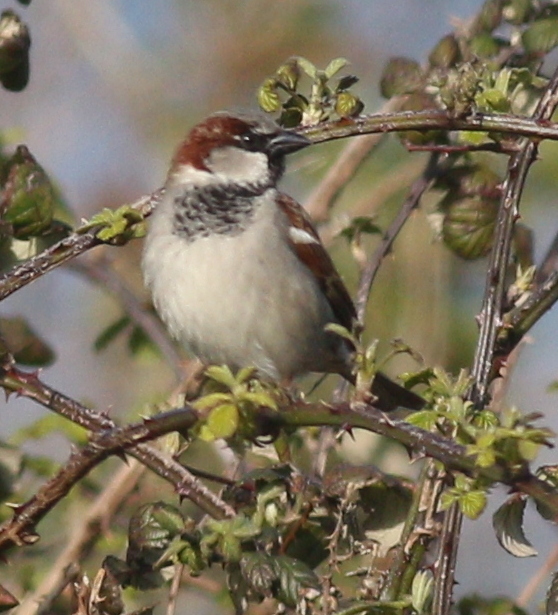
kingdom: Animalia
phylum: Chordata
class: Aves
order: Passeriformes
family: Passeridae
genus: Passer
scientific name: Passer domesticus
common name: House sparrow
